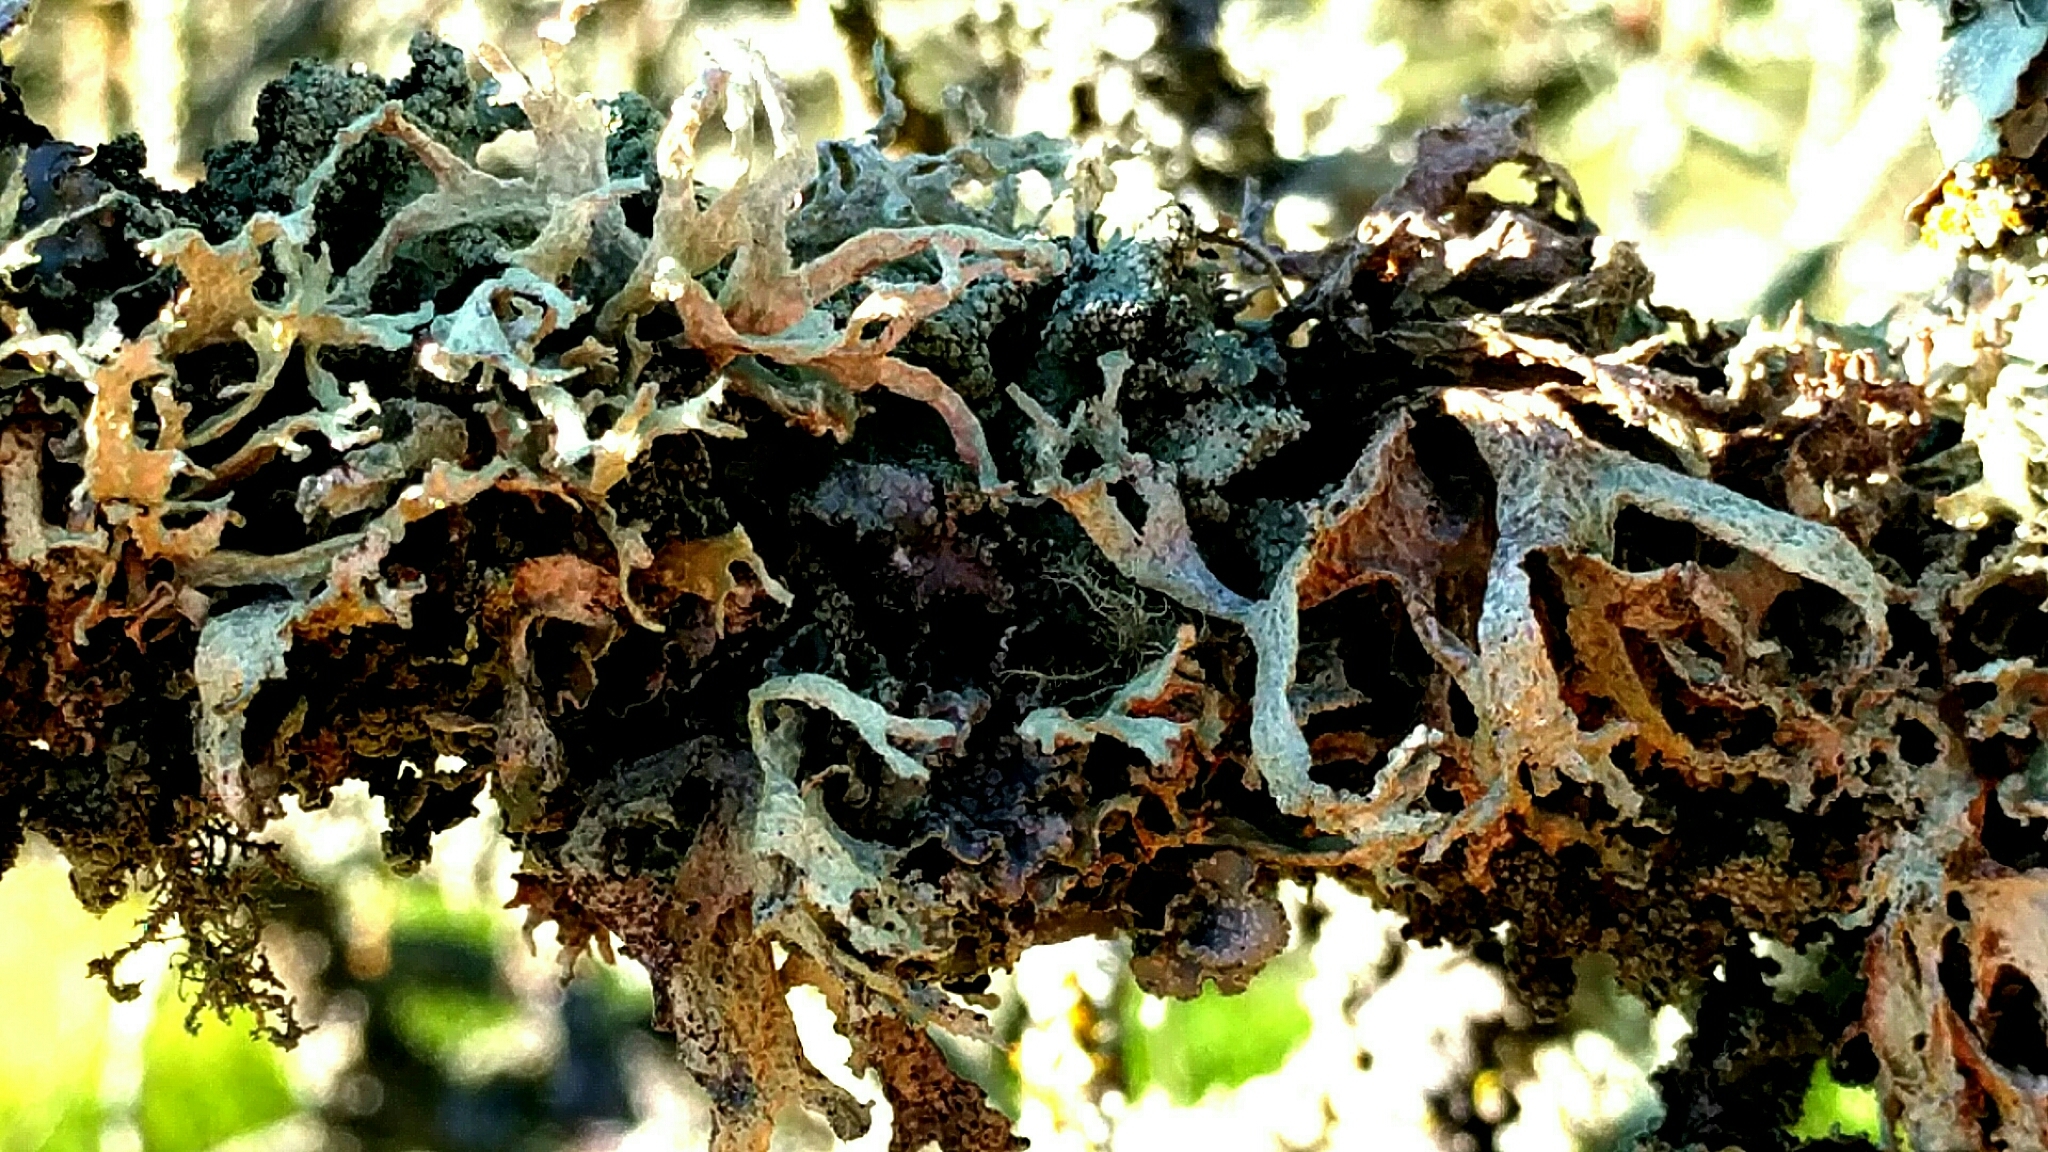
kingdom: Fungi
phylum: Ascomycota
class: Lecanoromycetes
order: Lecanorales
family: Parmeliaceae
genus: Evernia
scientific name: Evernia prunastri
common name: Oak moss
